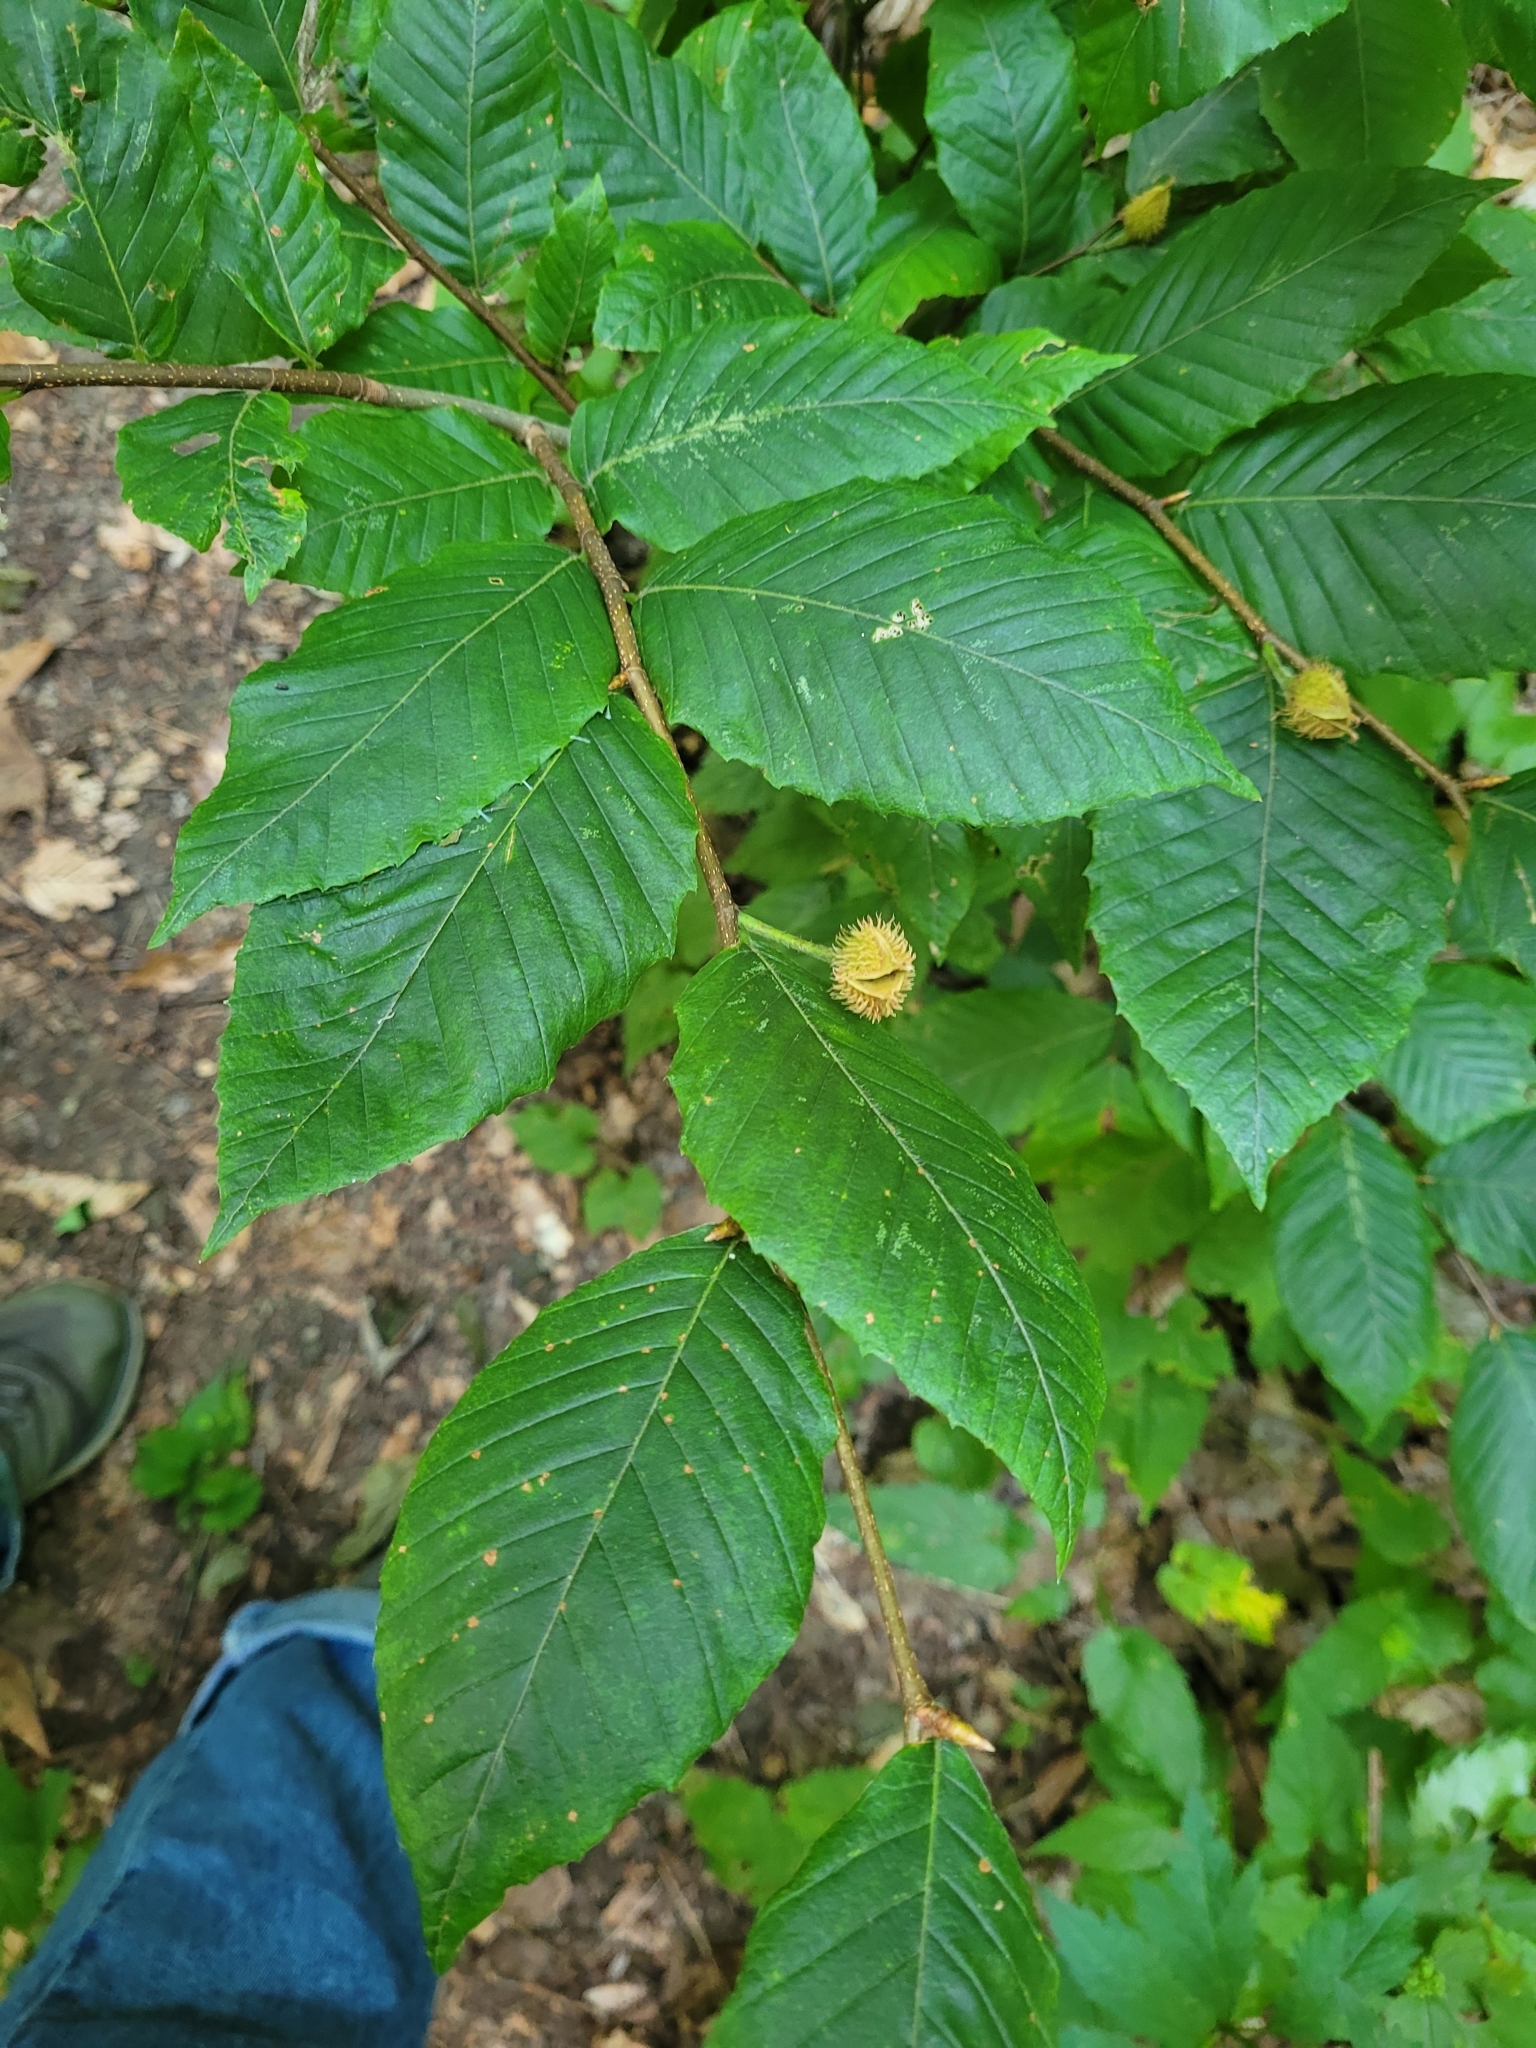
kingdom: Plantae
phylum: Tracheophyta
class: Magnoliopsida
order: Fagales
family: Fagaceae
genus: Fagus
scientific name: Fagus grandifolia
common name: American beech
